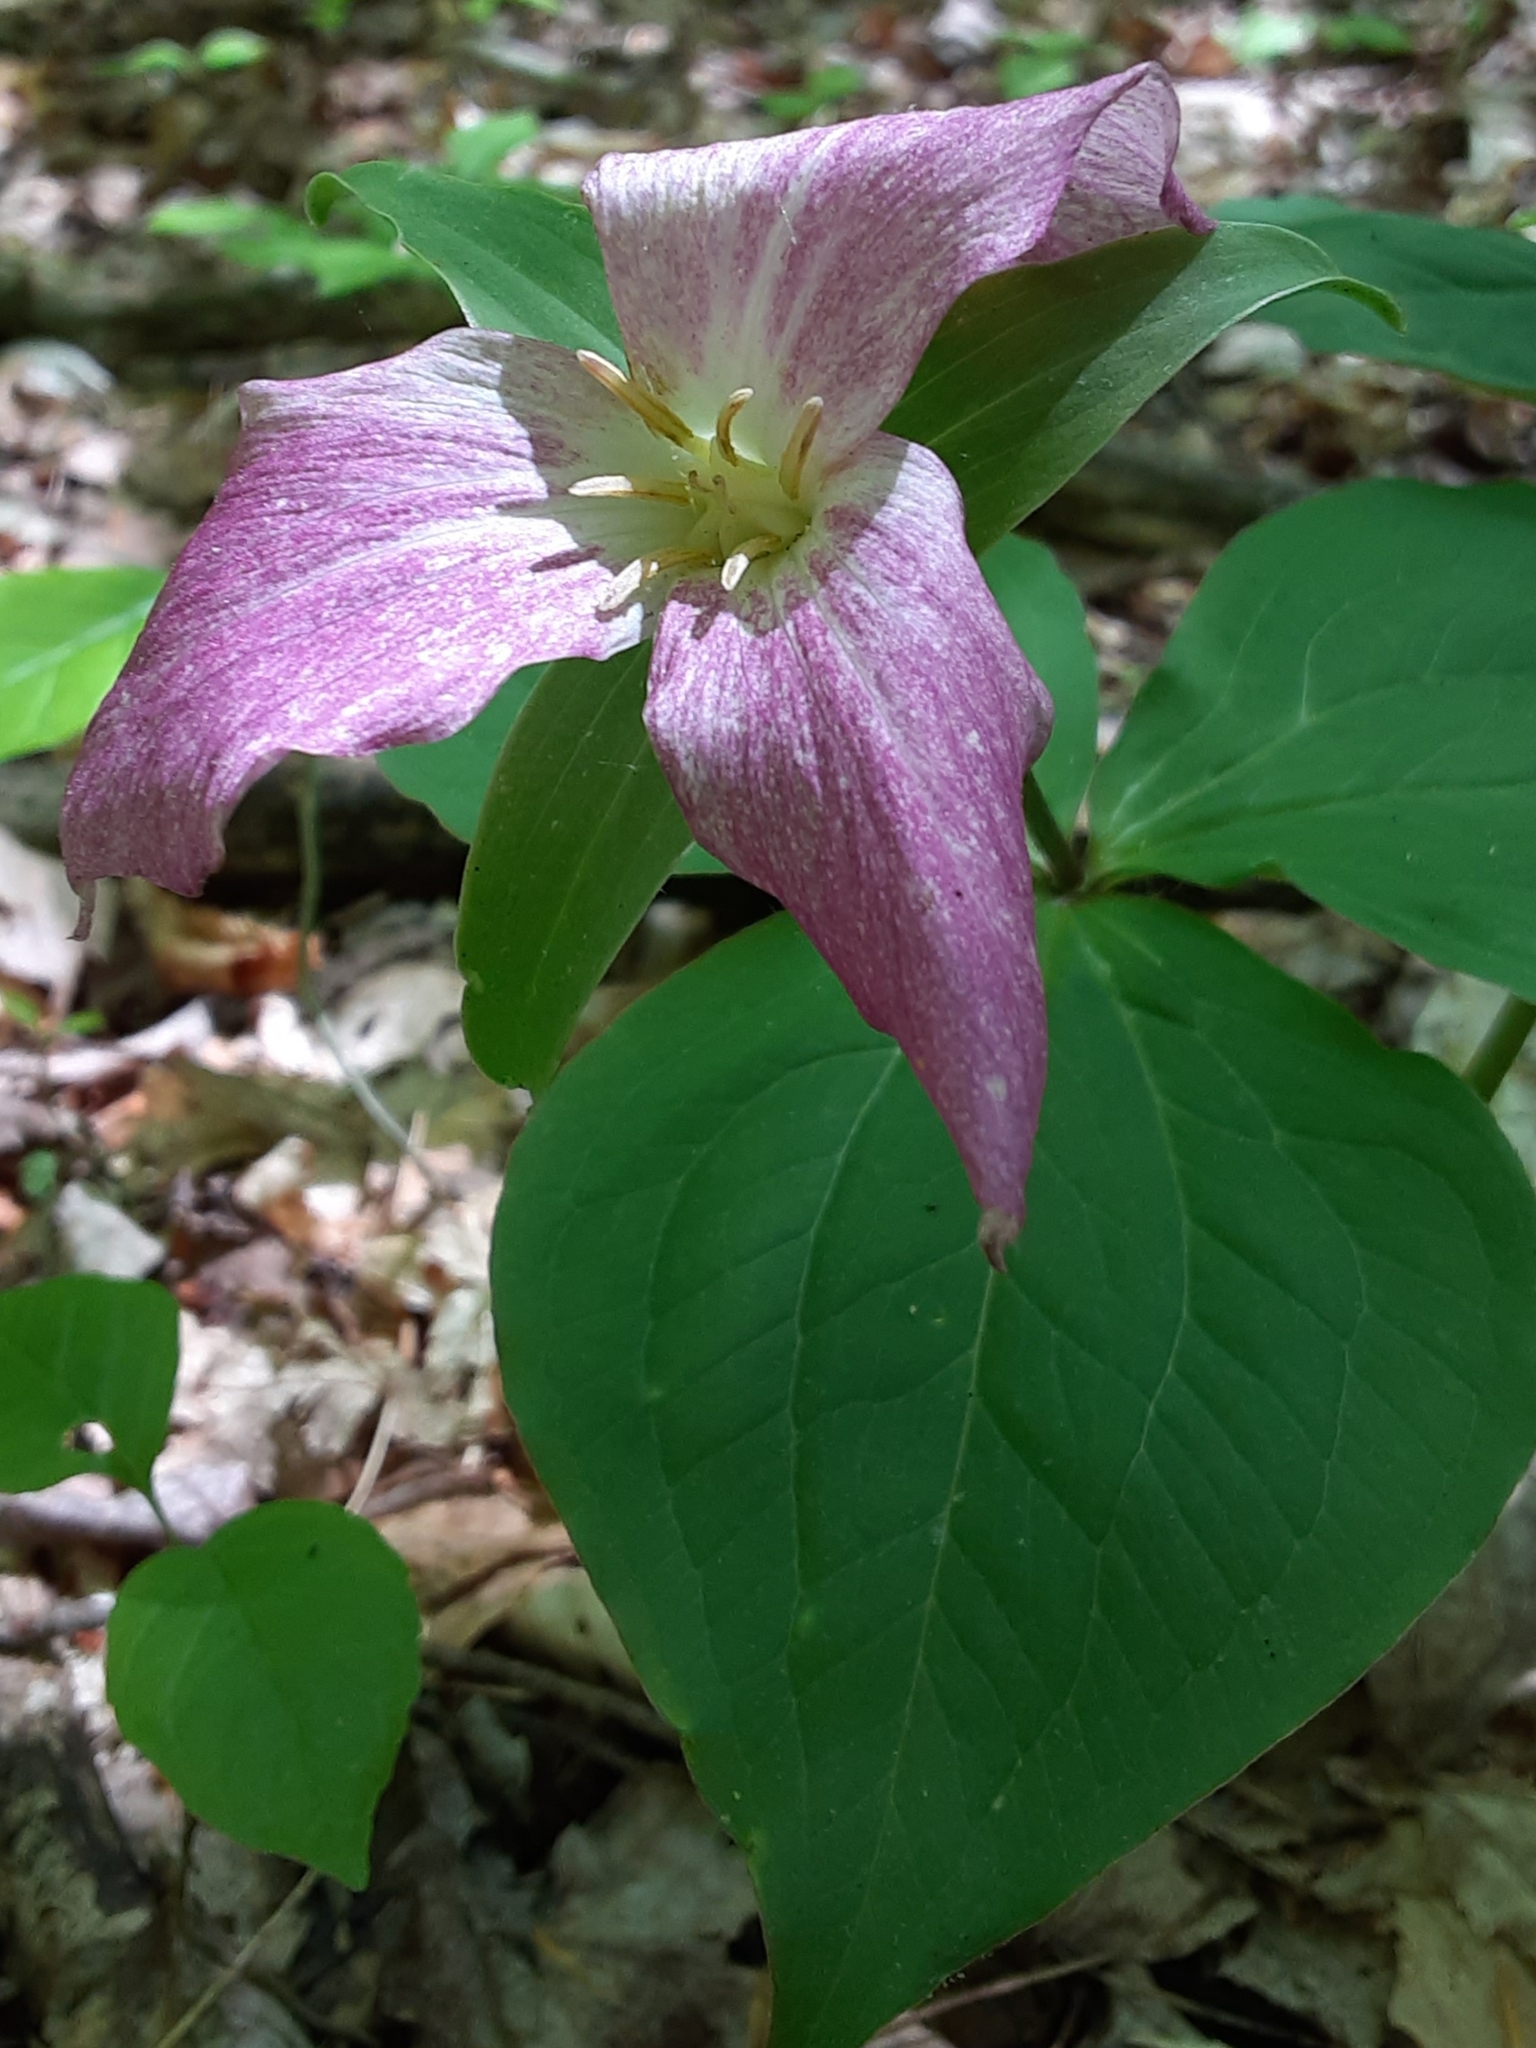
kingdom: Plantae
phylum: Tracheophyta
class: Liliopsida
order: Liliales
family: Melanthiaceae
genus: Trillium
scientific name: Trillium grandiflorum
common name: Great white trillium
